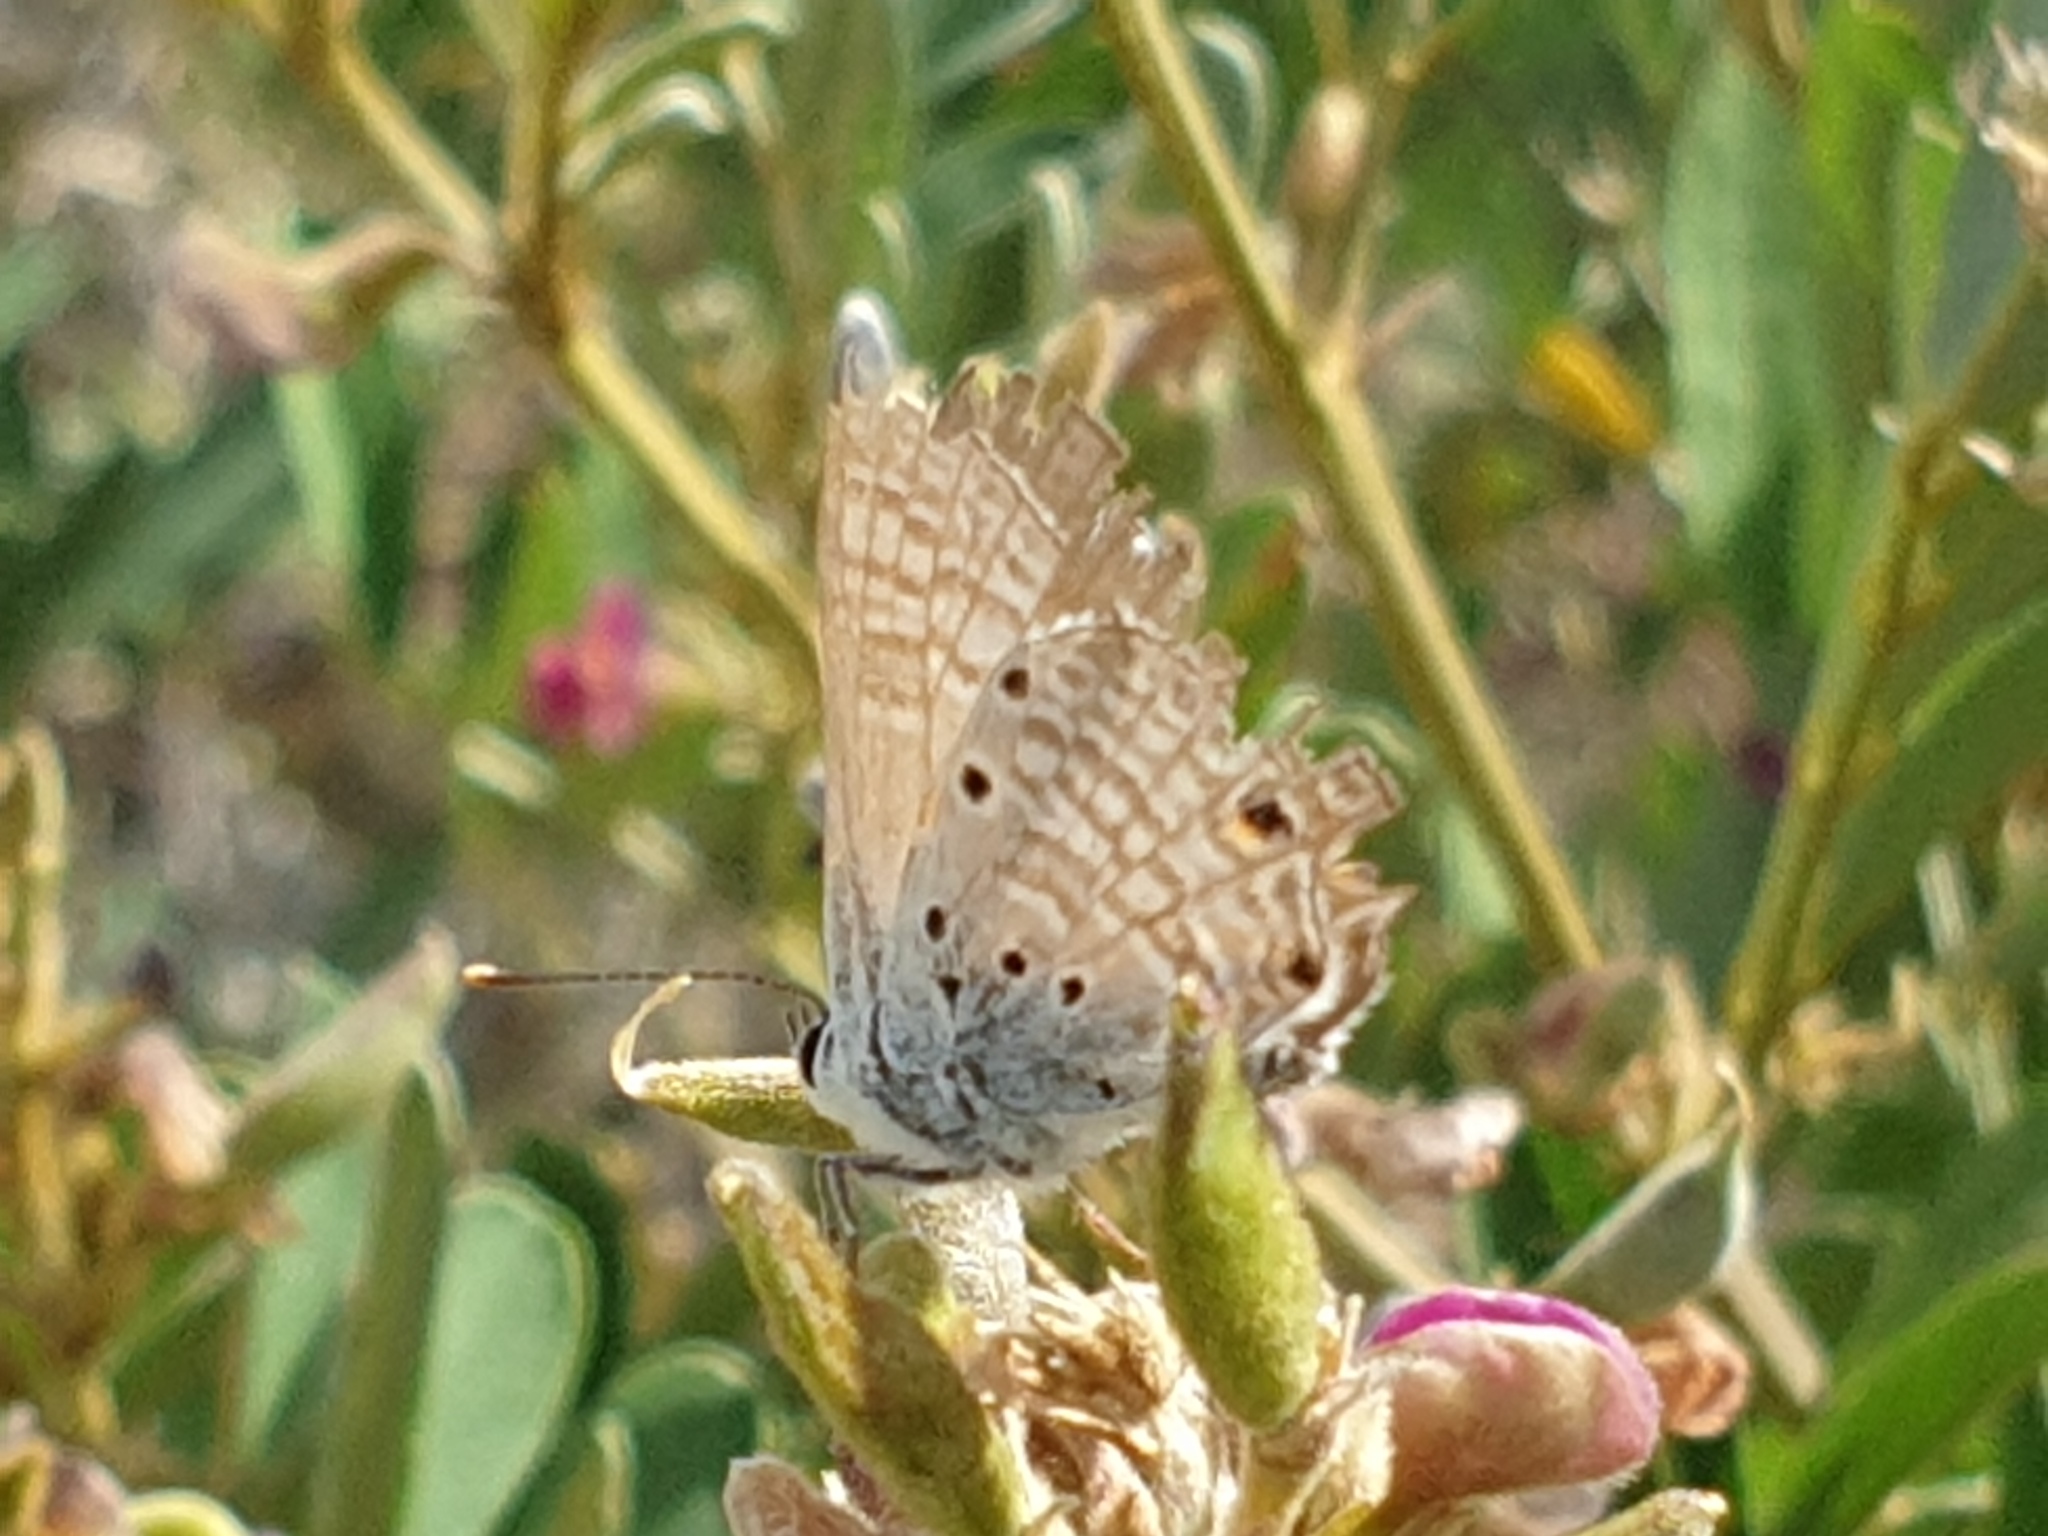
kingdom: Animalia
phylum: Arthropoda
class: Insecta
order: Lepidoptera
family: Lycaenidae
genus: Anthene
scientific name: Anthene amarah
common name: Black-striped hairtail
